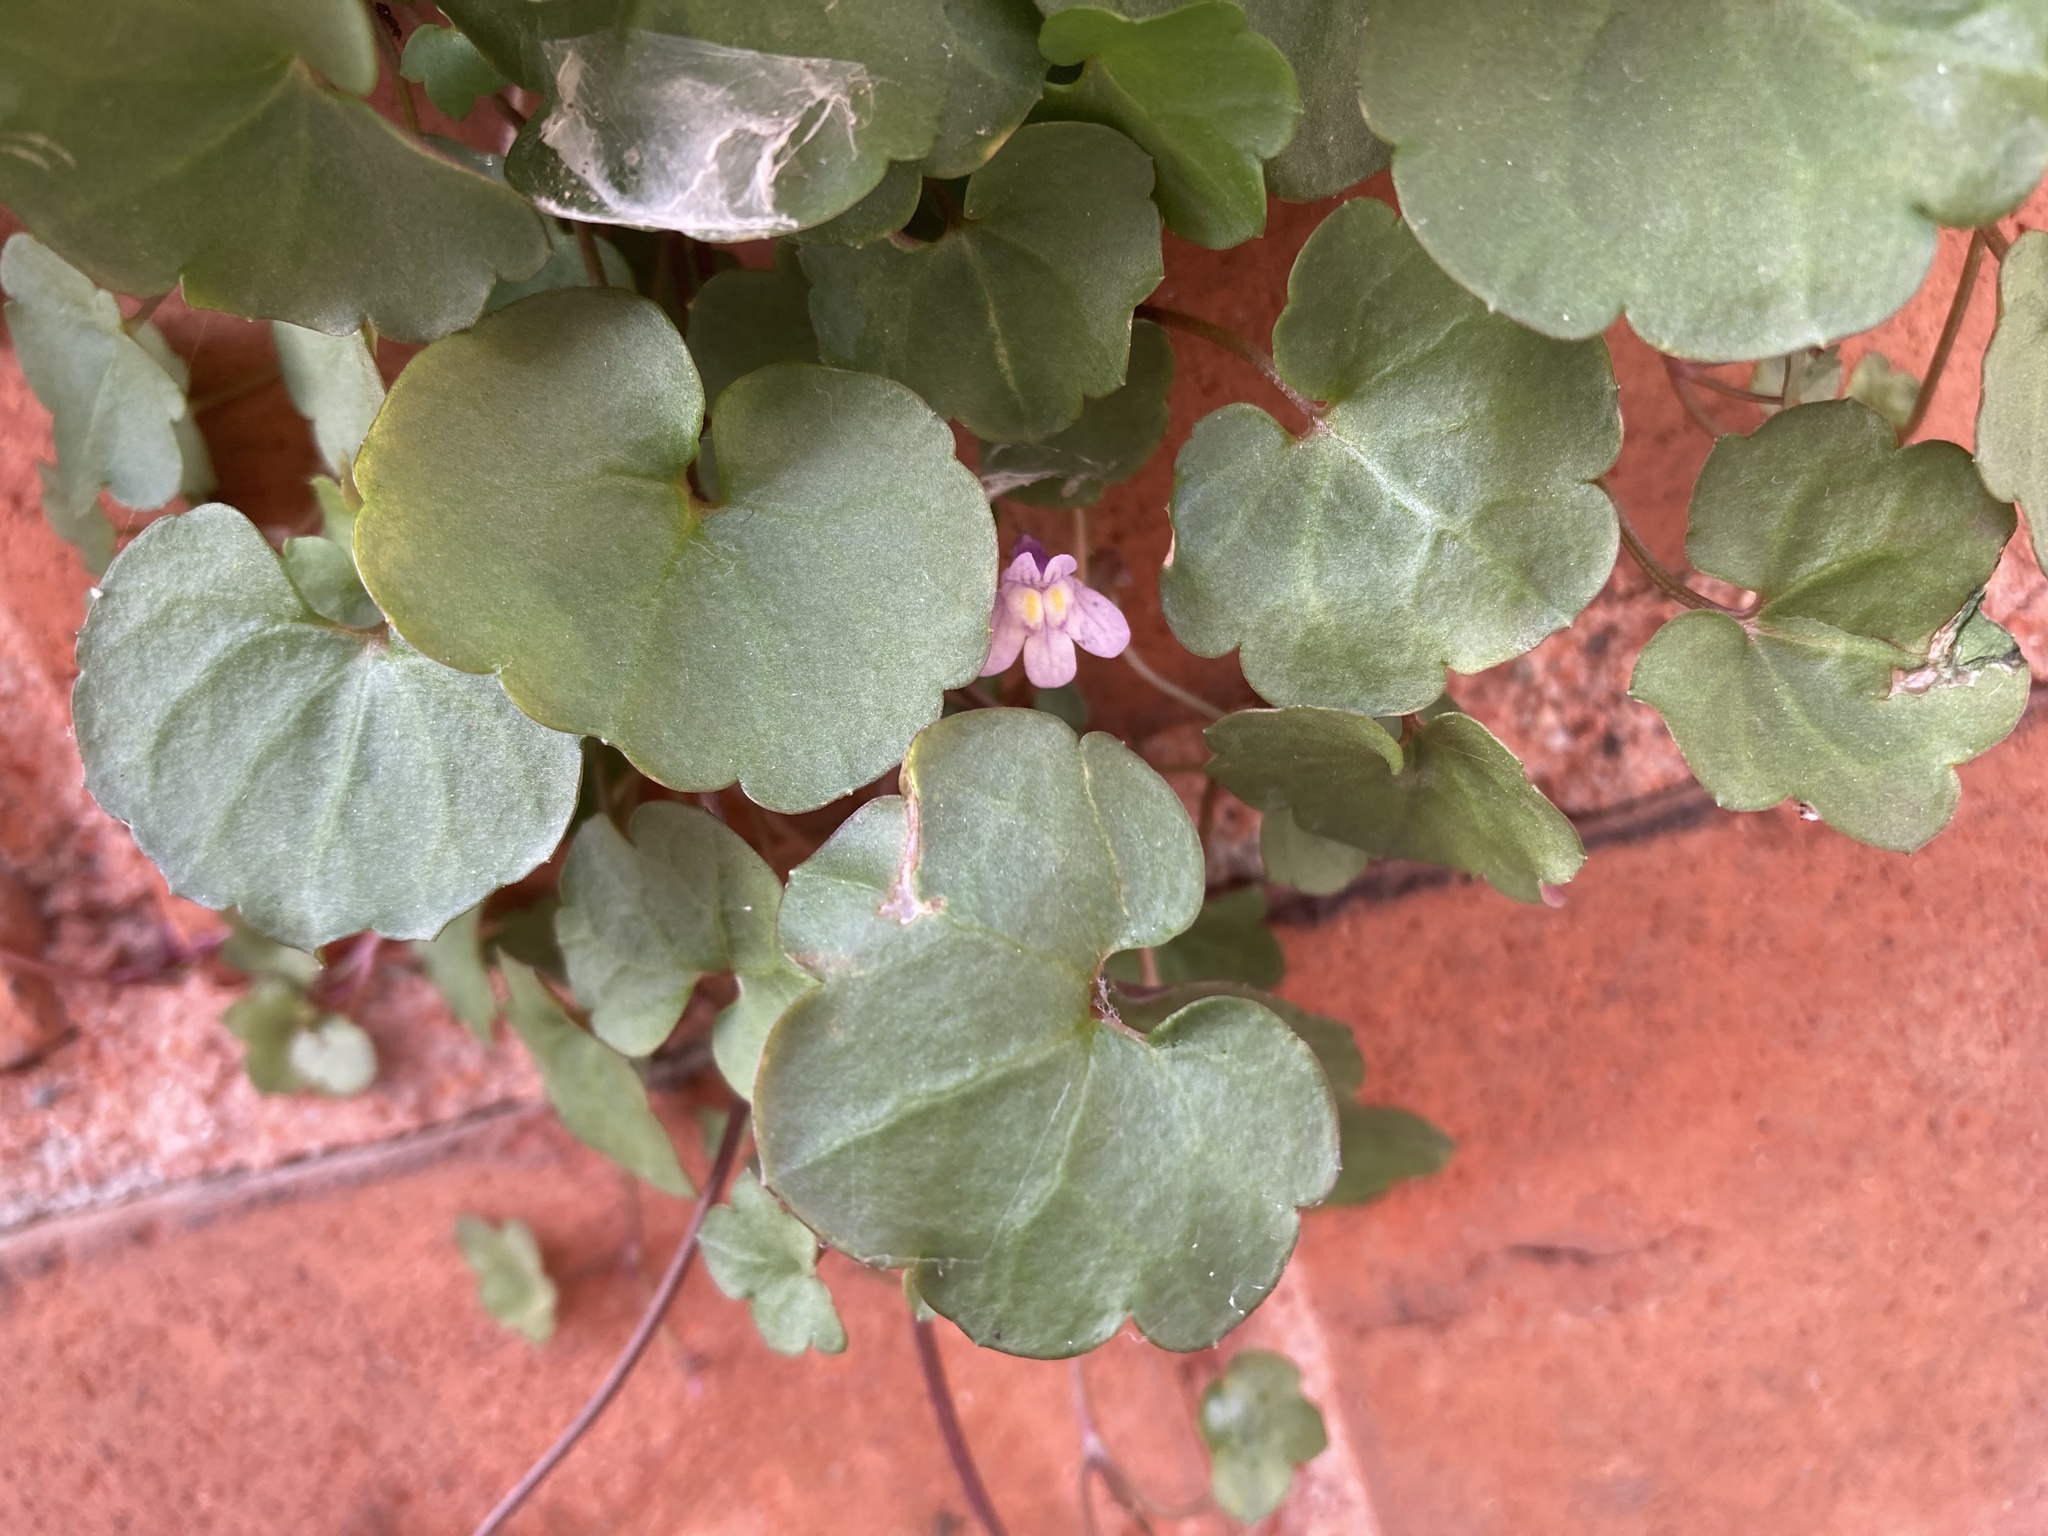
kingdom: Plantae
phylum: Tracheophyta
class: Magnoliopsida
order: Lamiales
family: Plantaginaceae
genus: Cymbalaria
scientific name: Cymbalaria muralis
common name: Ivy-leaved toadflax
